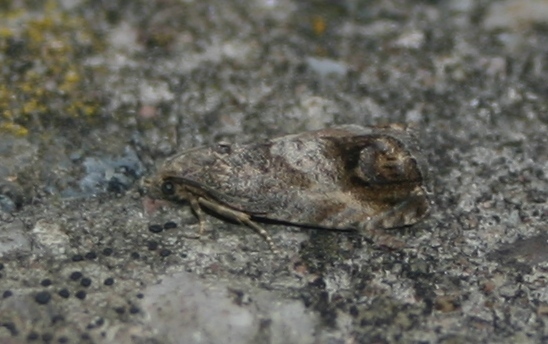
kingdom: Animalia
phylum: Arthropoda
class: Insecta
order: Lepidoptera
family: Tortricidae
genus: Cydia
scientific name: Cydia splendana
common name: De: kastanienwickler, eichenwickler es: oruga de la castaña fr: carpocapse des châtaignes it: cidia o tortrice tardiva delle castagne pt: bichado das castanhas gb: acorn moth, chestnut fruit tortrix
